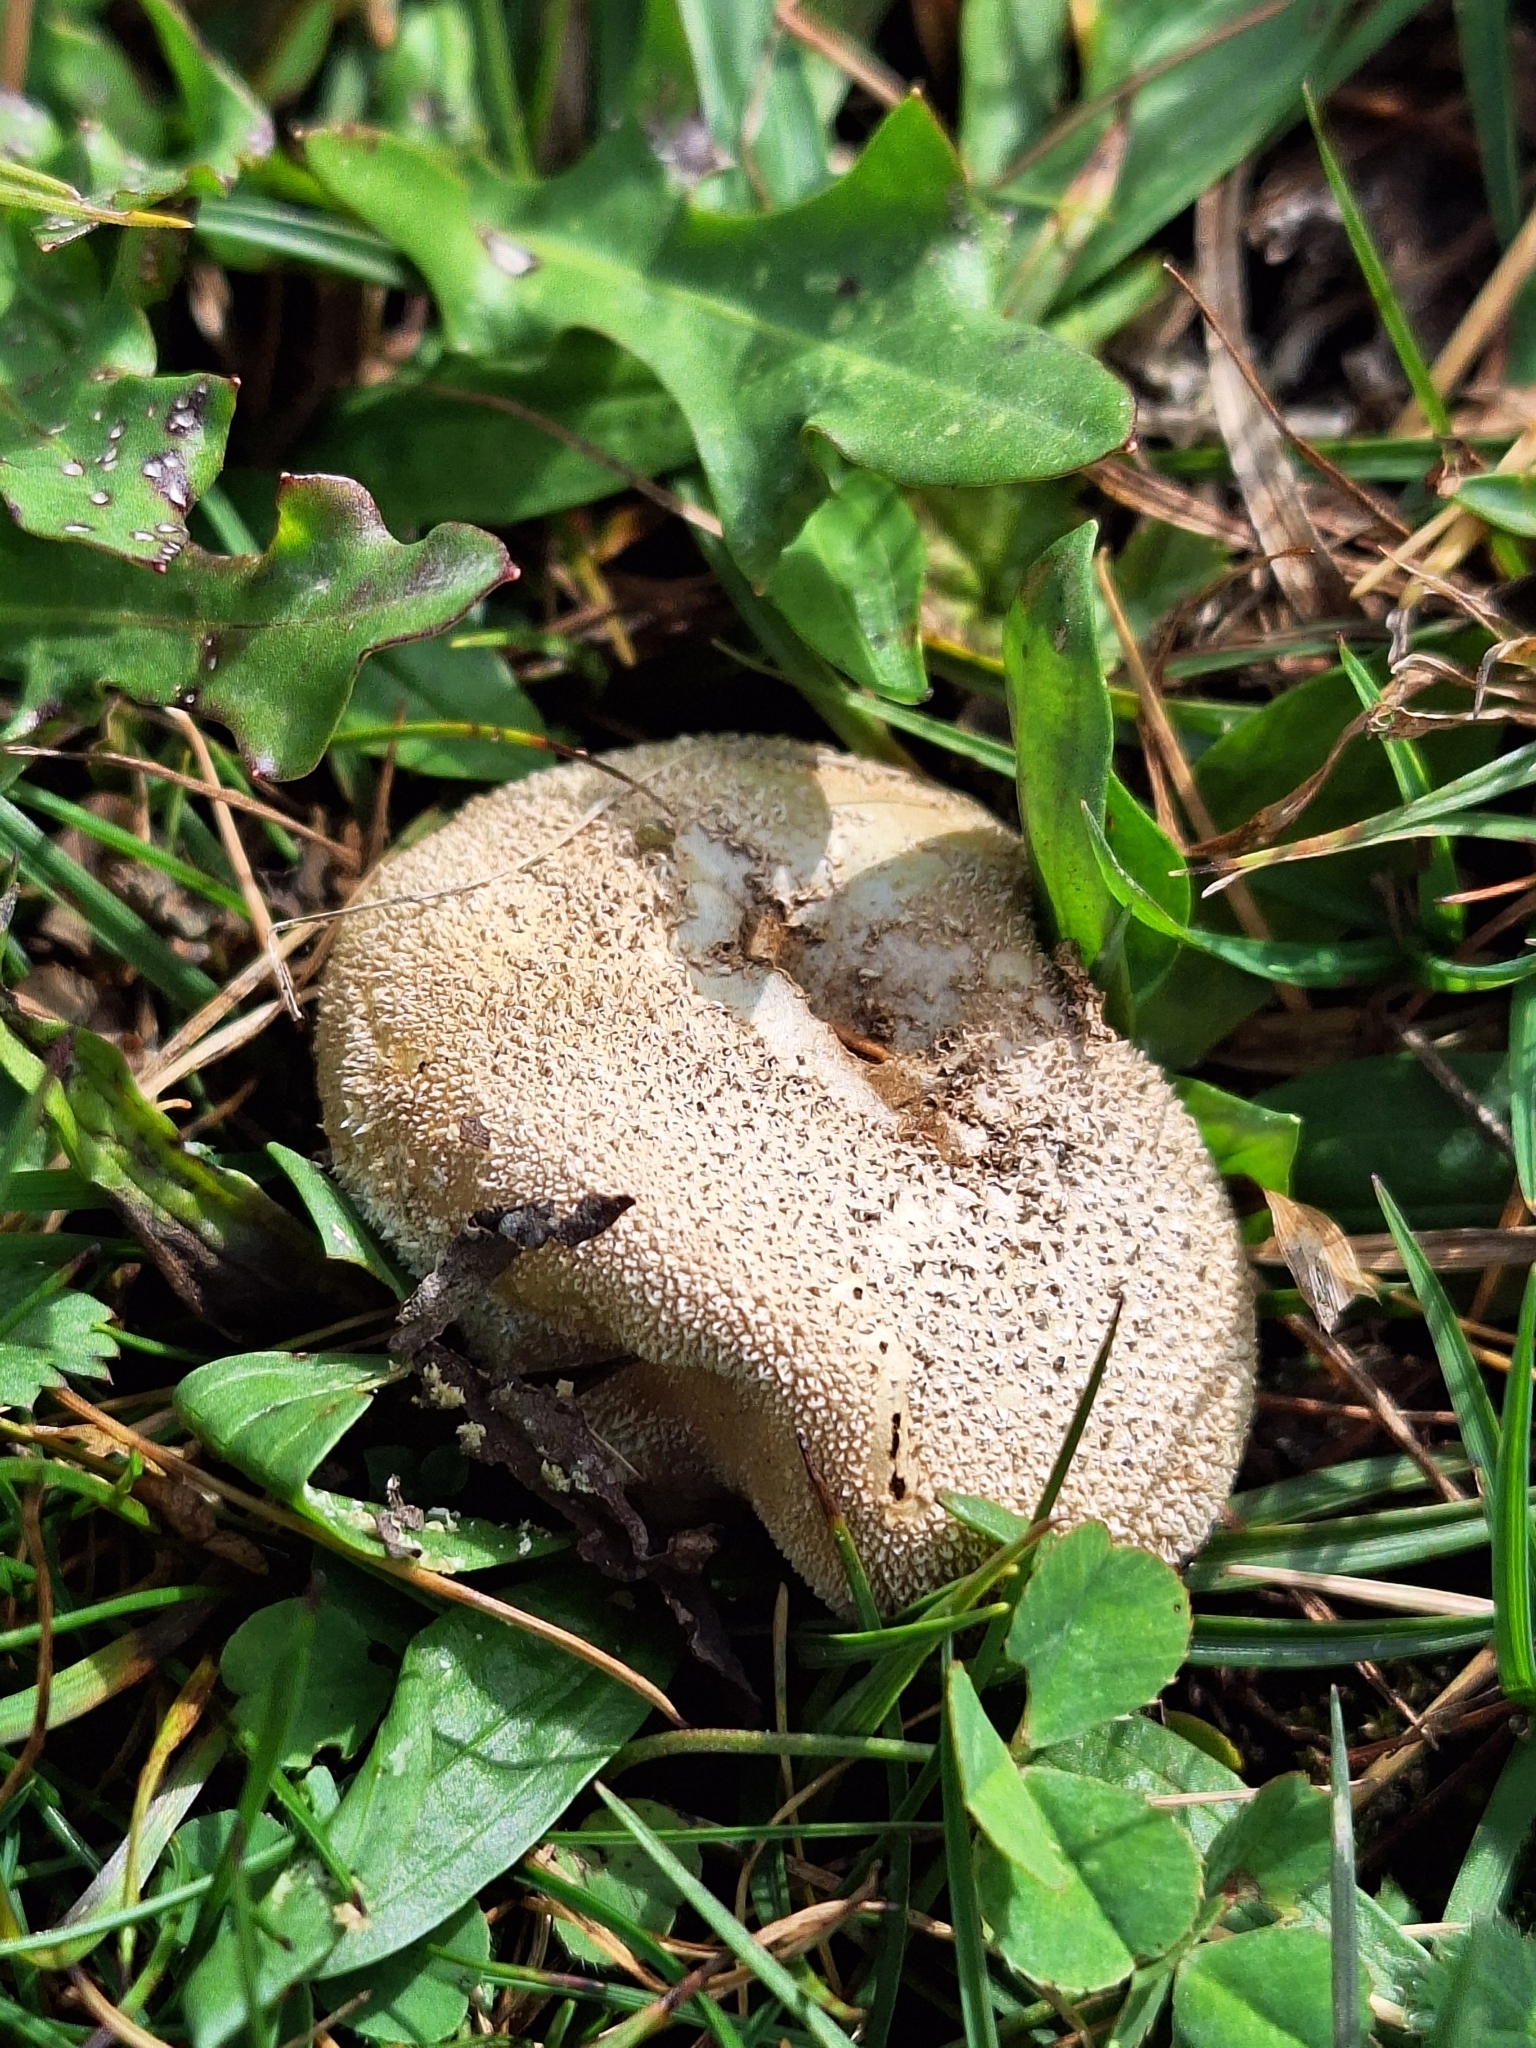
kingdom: Fungi
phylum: Basidiomycota
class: Agaricomycetes
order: Agaricales
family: Lycoperdaceae
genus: Lycoperdon
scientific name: Lycoperdon pratense
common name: Meadow puffball
